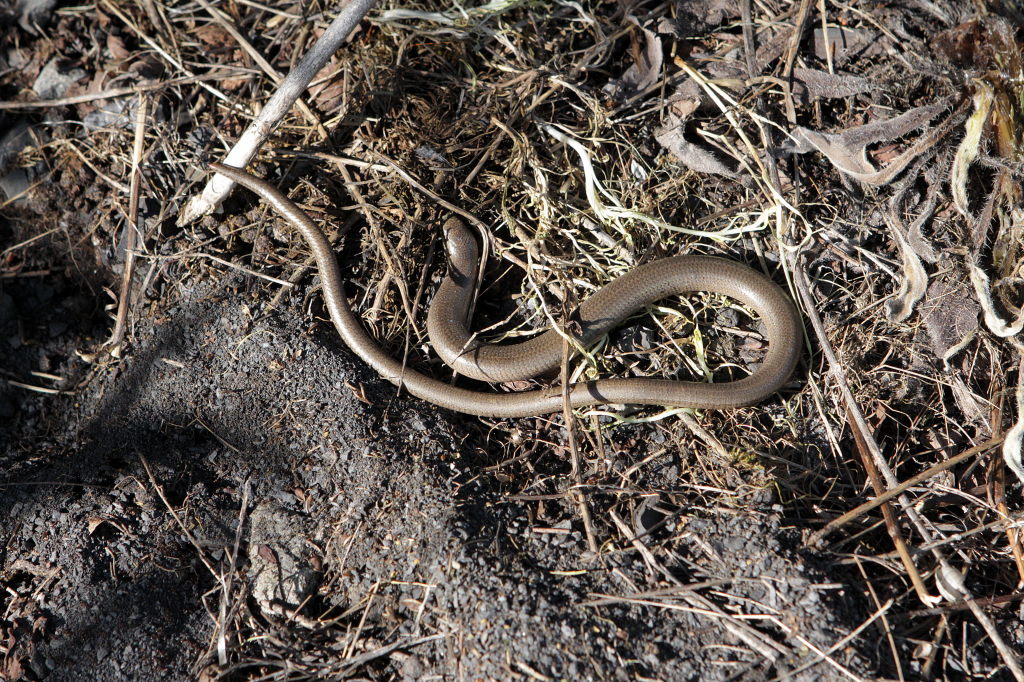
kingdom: Animalia
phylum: Chordata
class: Squamata
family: Anguidae
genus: Anguis
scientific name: Anguis fragilis
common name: Slow worm
